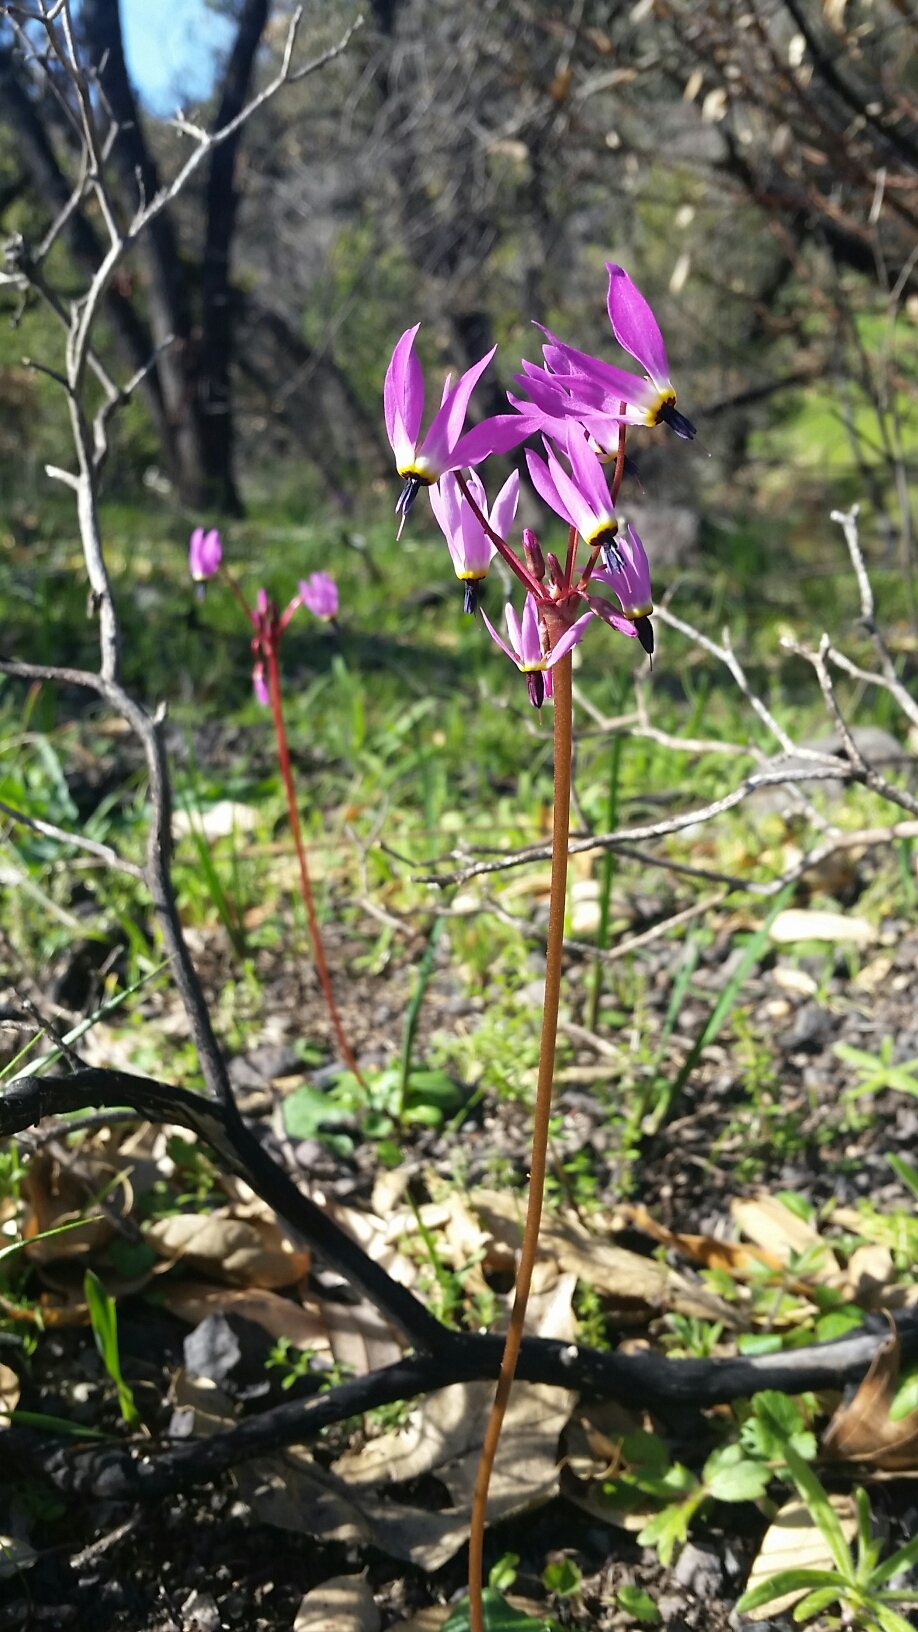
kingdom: Plantae
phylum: Tracheophyta
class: Magnoliopsida
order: Ericales
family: Primulaceae
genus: Dodecatheon
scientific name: Dodecatheon hendersonii
